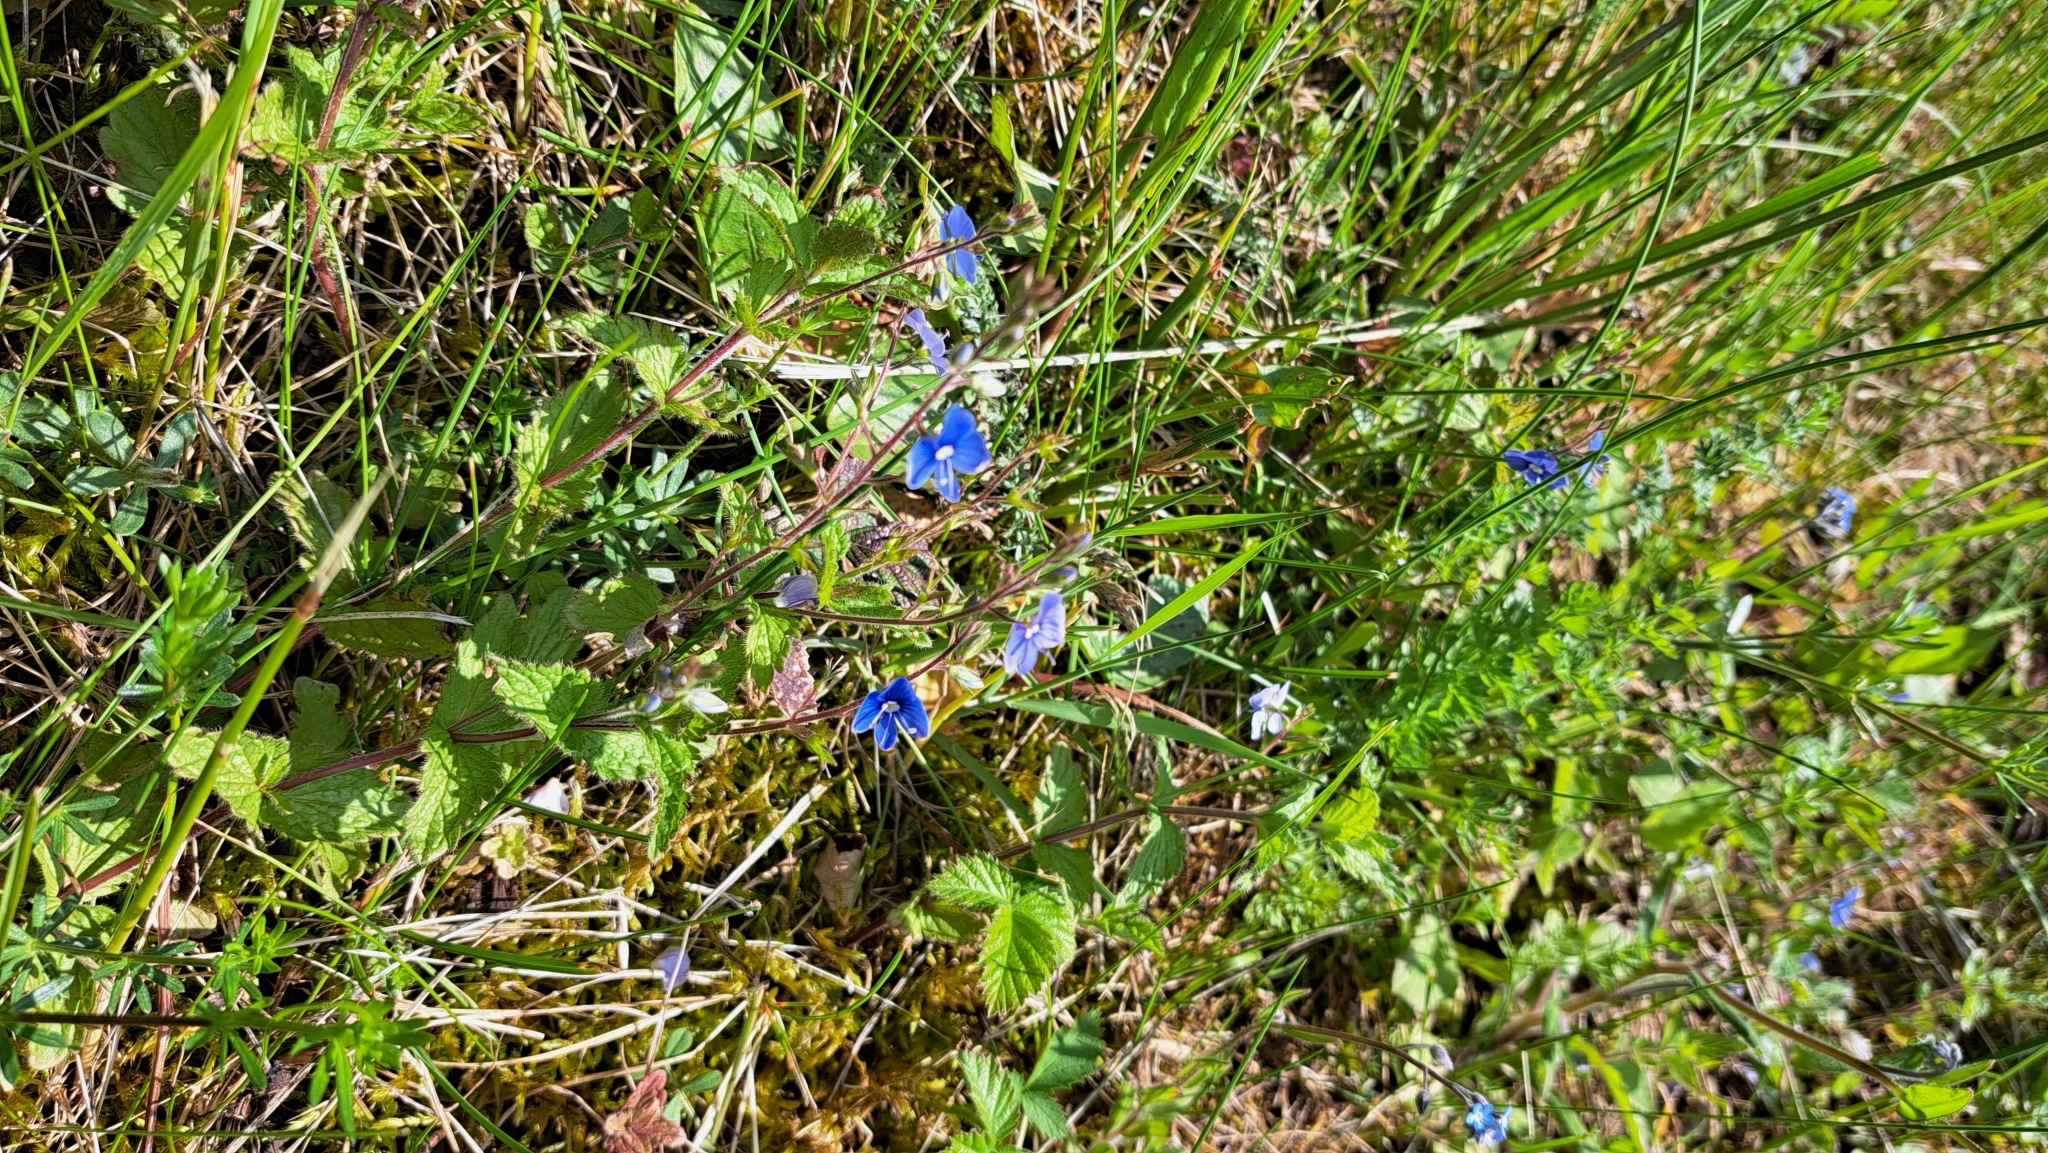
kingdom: Plantae
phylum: Tracheophyta
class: Magnoliopsida
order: Lamiales
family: Plantaginaceae
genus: Veronica
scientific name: Veronica chamaedrys
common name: Germander speedwell
